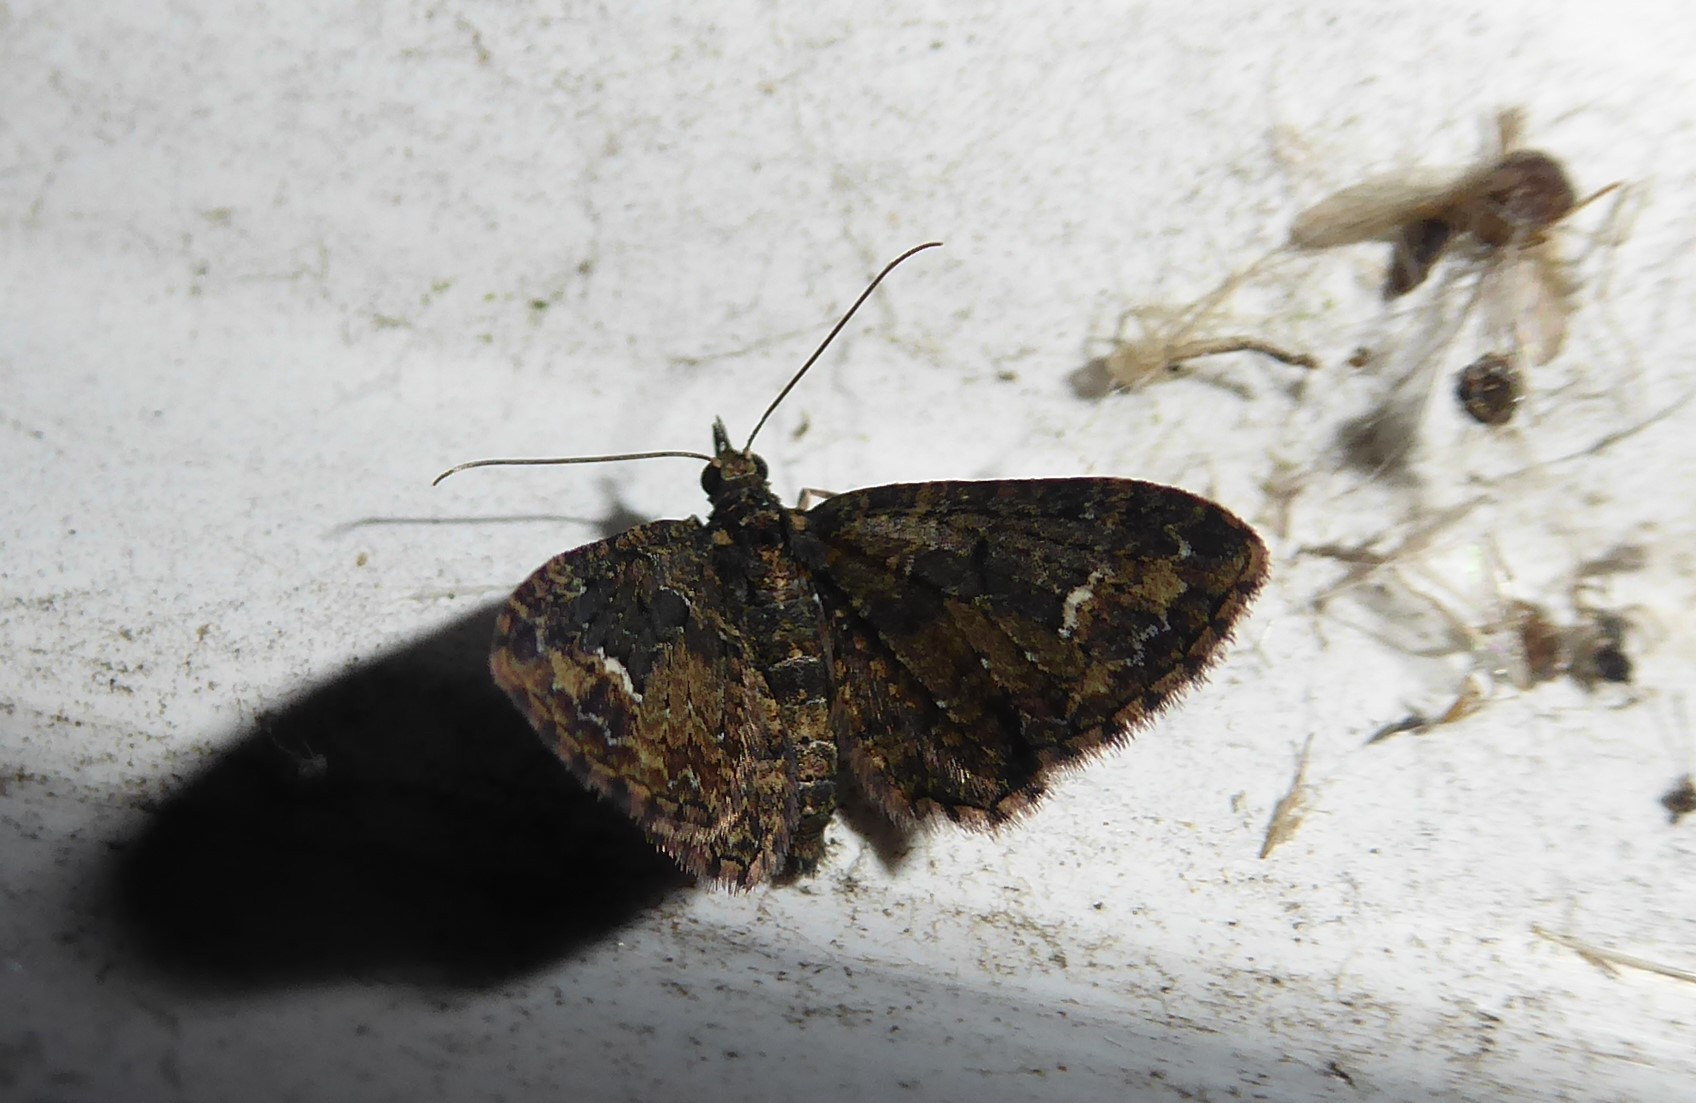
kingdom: Animalia
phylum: Arthropoda
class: Insecta
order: Lepidoptera
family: Geometridae
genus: Pasiphilodes
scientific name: Pasiphilodes testulata
